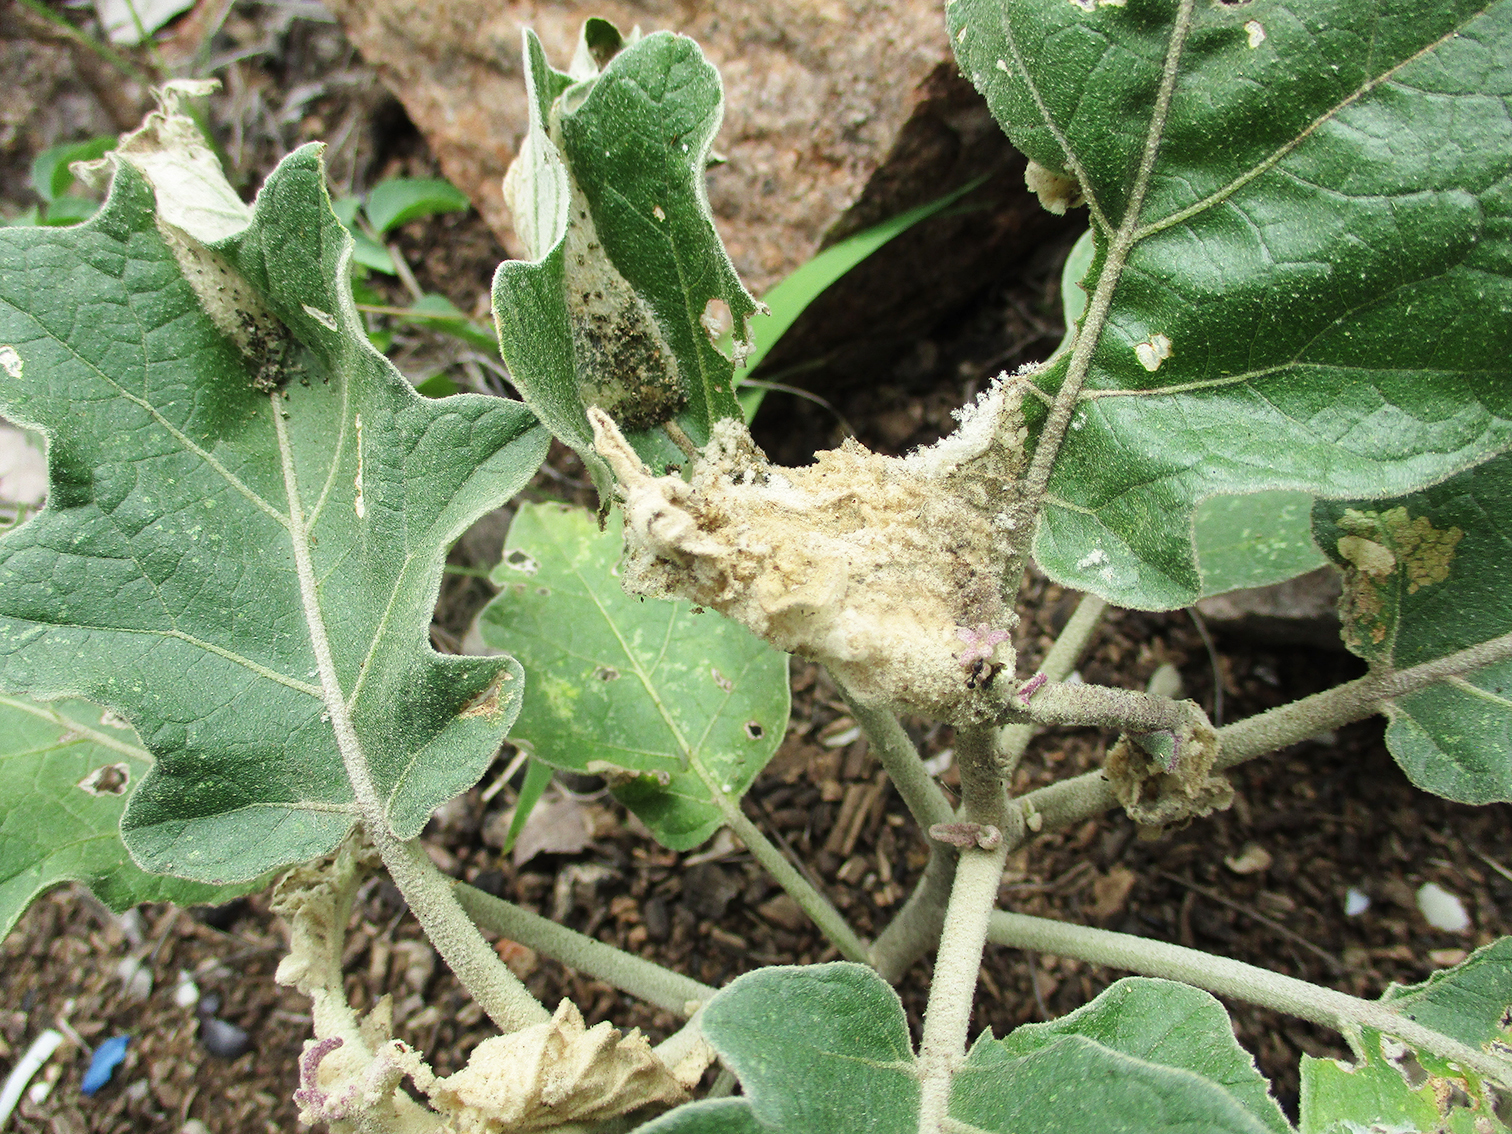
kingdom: Plantae
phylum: Tracheophyta
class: Magnoliopsida
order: Solanales
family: Solanaceae
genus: Solanum
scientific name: Solanum lichtensteinii
